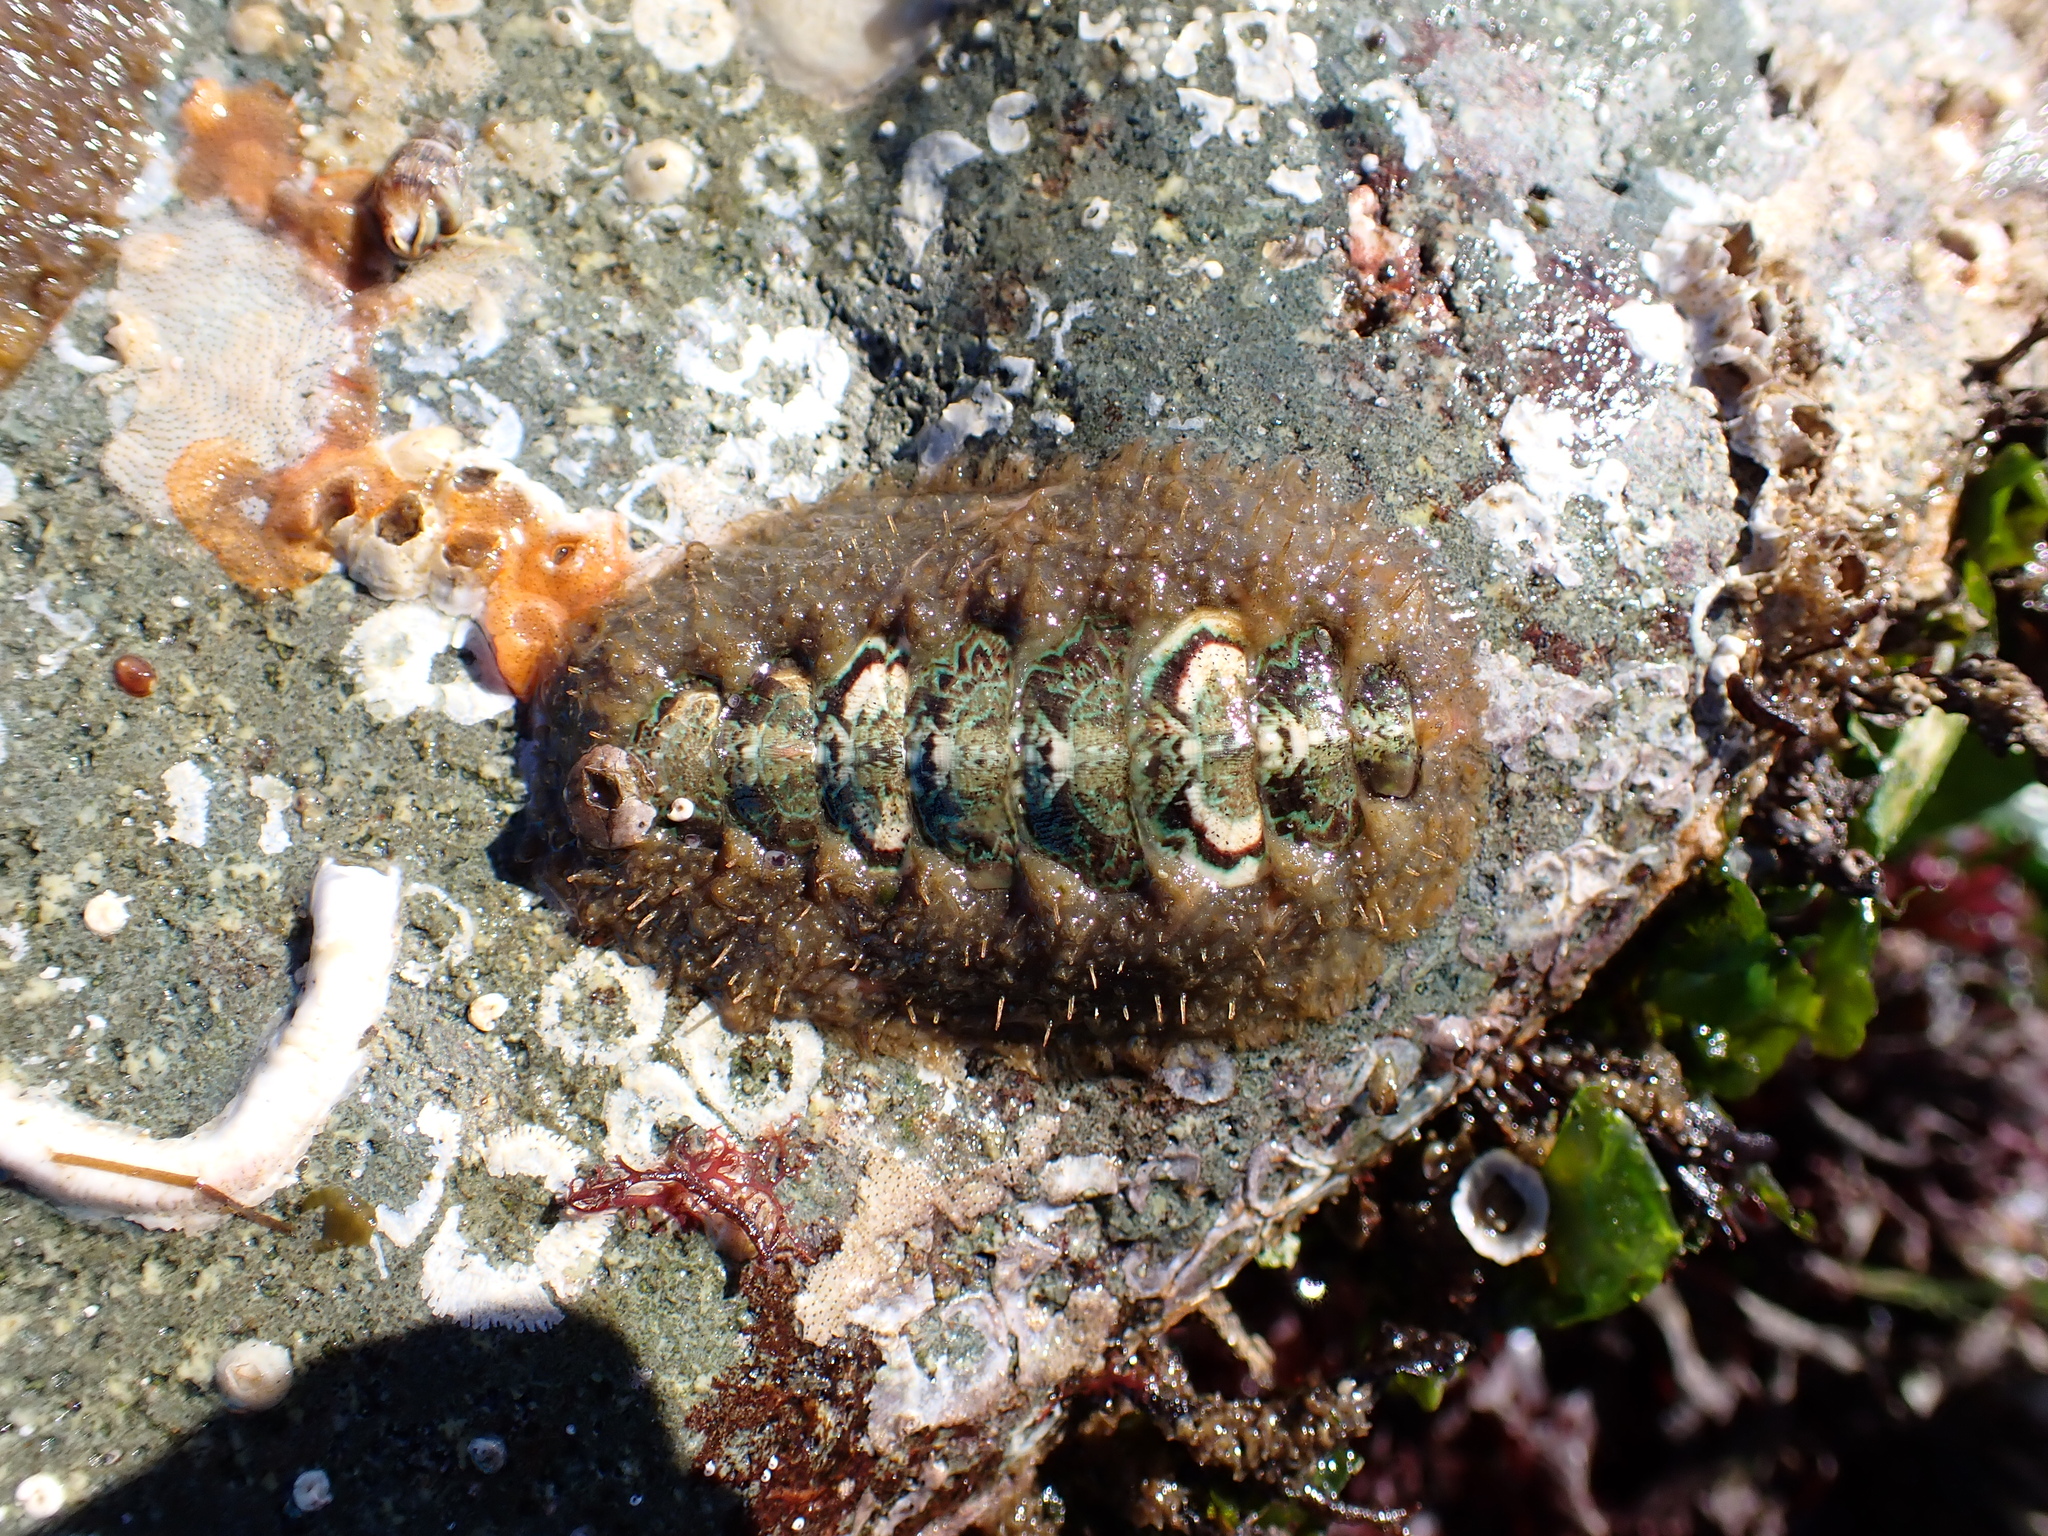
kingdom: Animalia
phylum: Mollusca
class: Polyplacophora
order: Chitonida
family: Mopaliidae
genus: Mopalia
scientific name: Mopalia ciliata
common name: Hairy chiton
